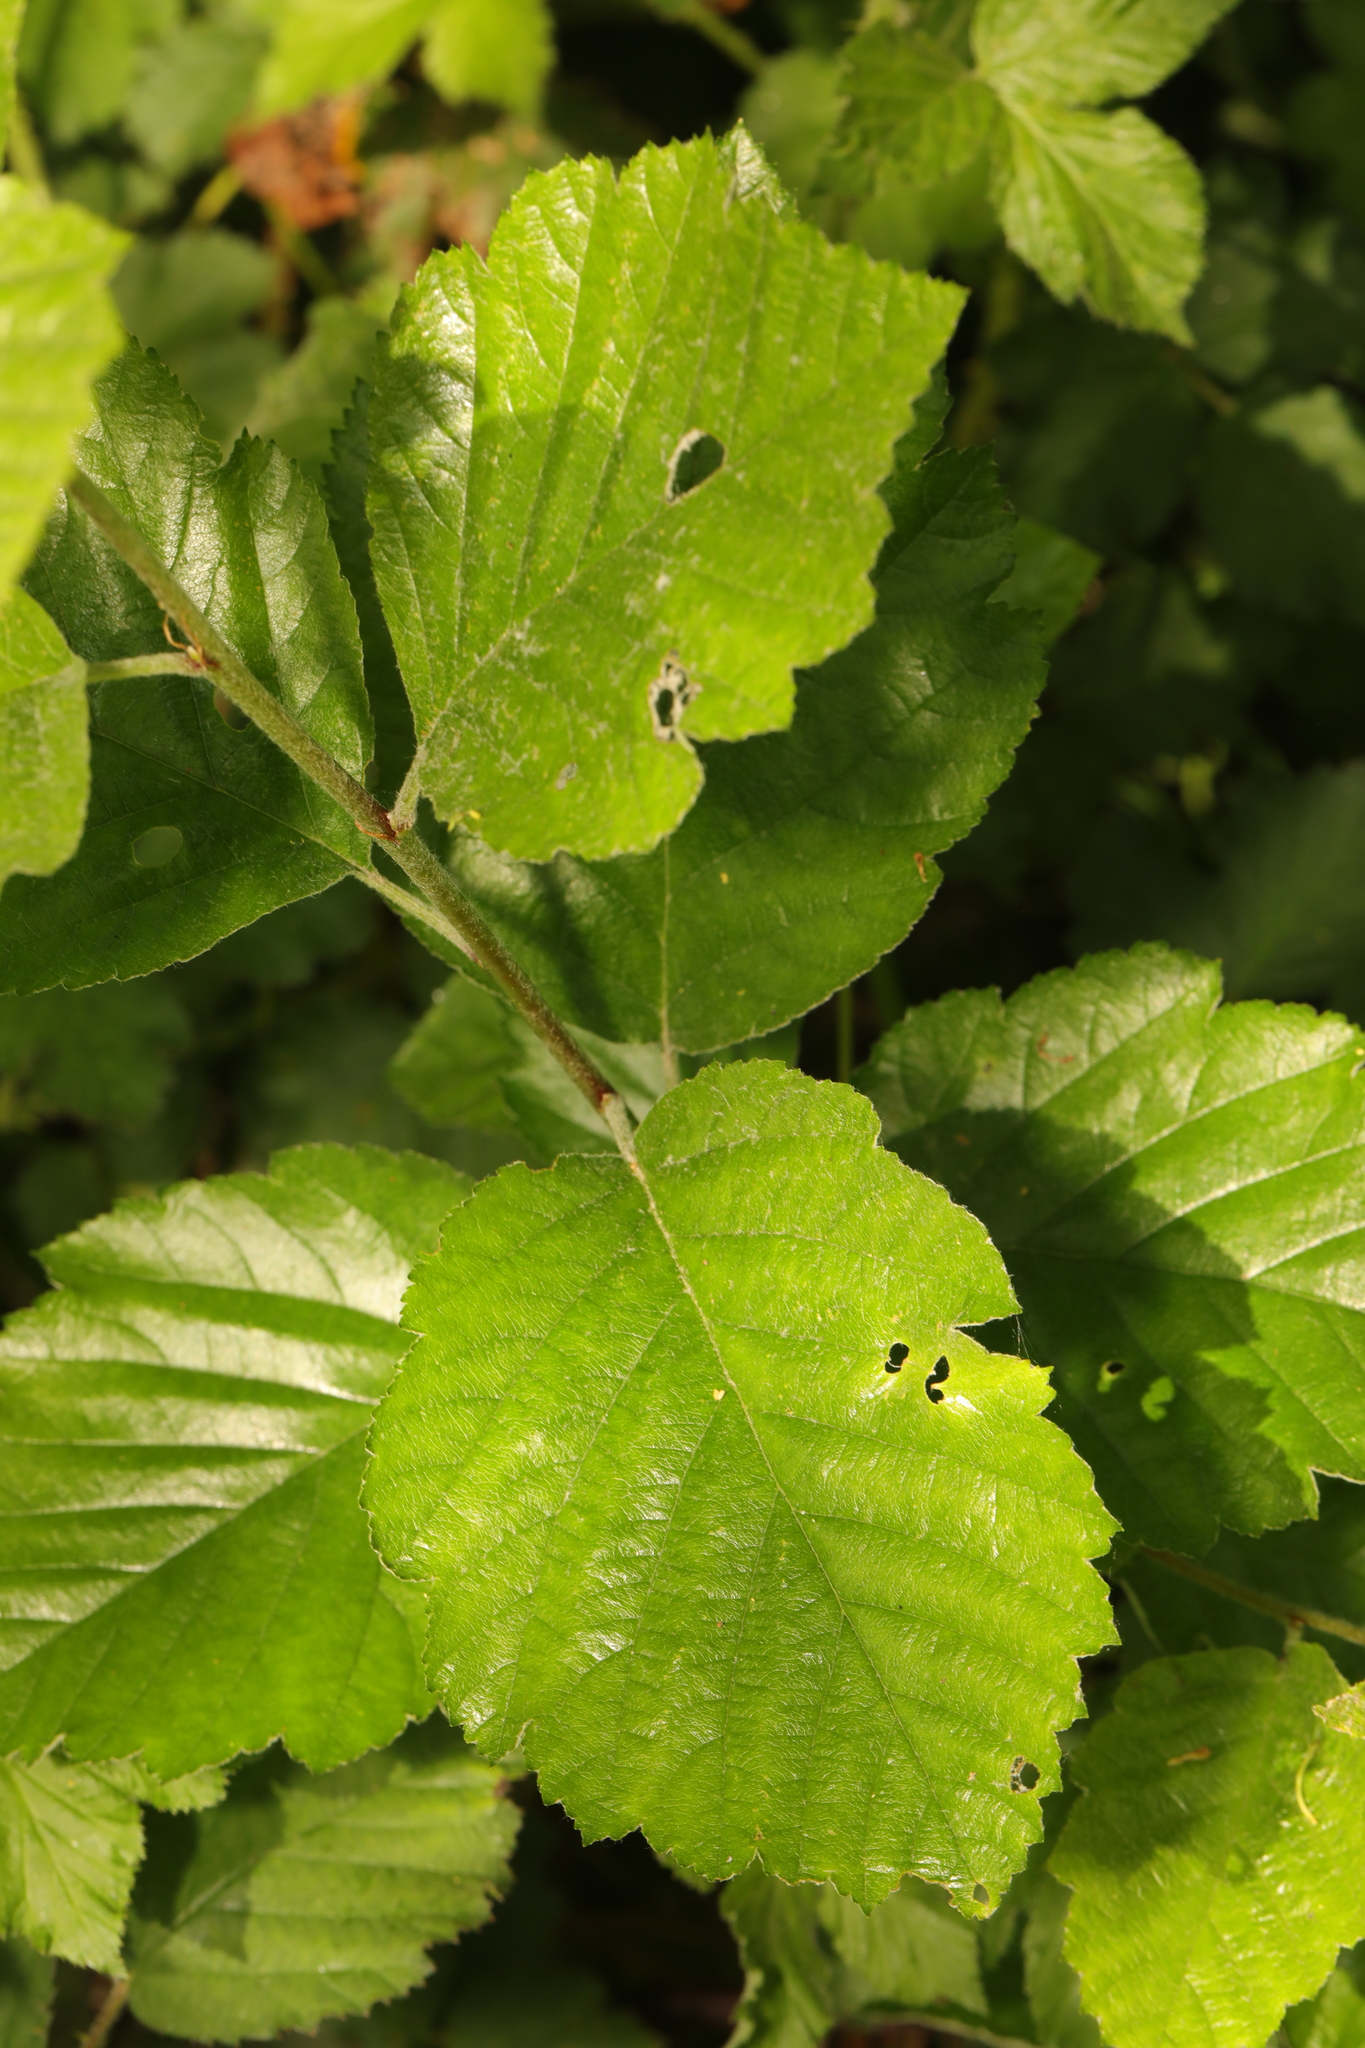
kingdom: Plantae
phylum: Tracheophyta
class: Magnoliopsida
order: Fagales
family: Betulaceae
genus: Alnus
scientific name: Alnus incana
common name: Grey alder
